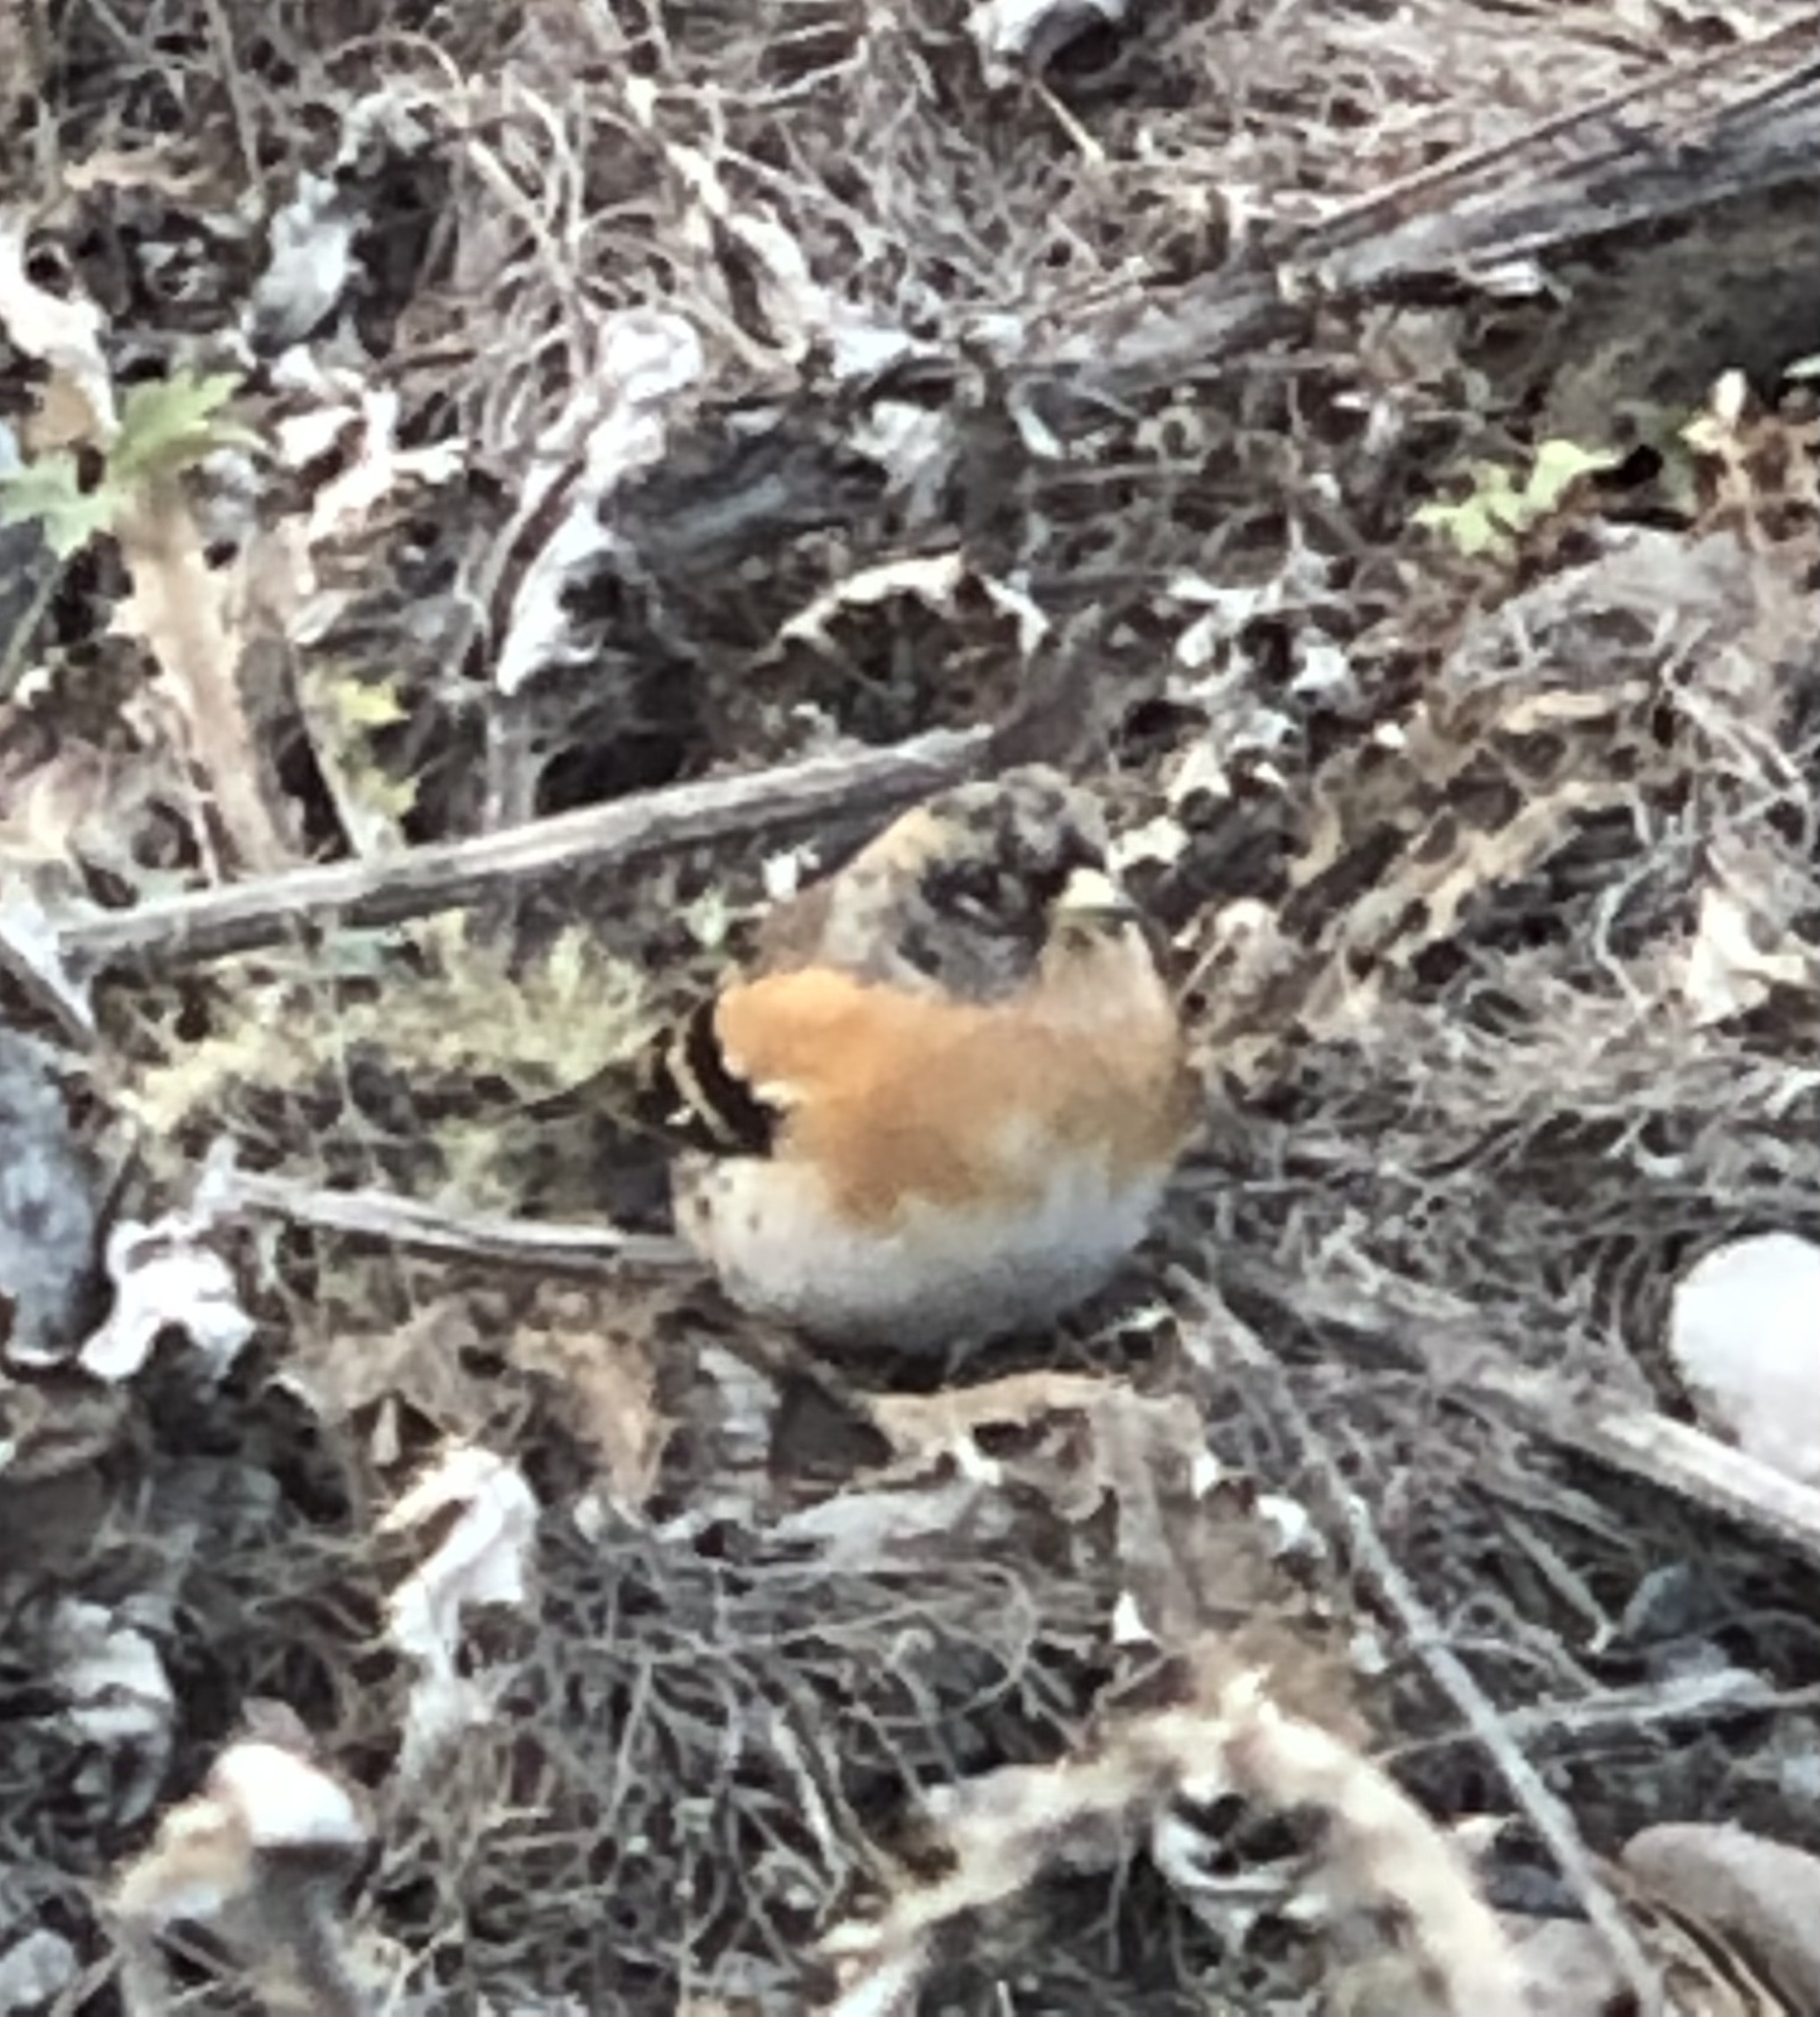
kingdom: Animalia
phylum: Chordata
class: Aves
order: Passeriformes
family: Fringillidae
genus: Fringilla
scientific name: Fringilla montifringilla
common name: Brambling
